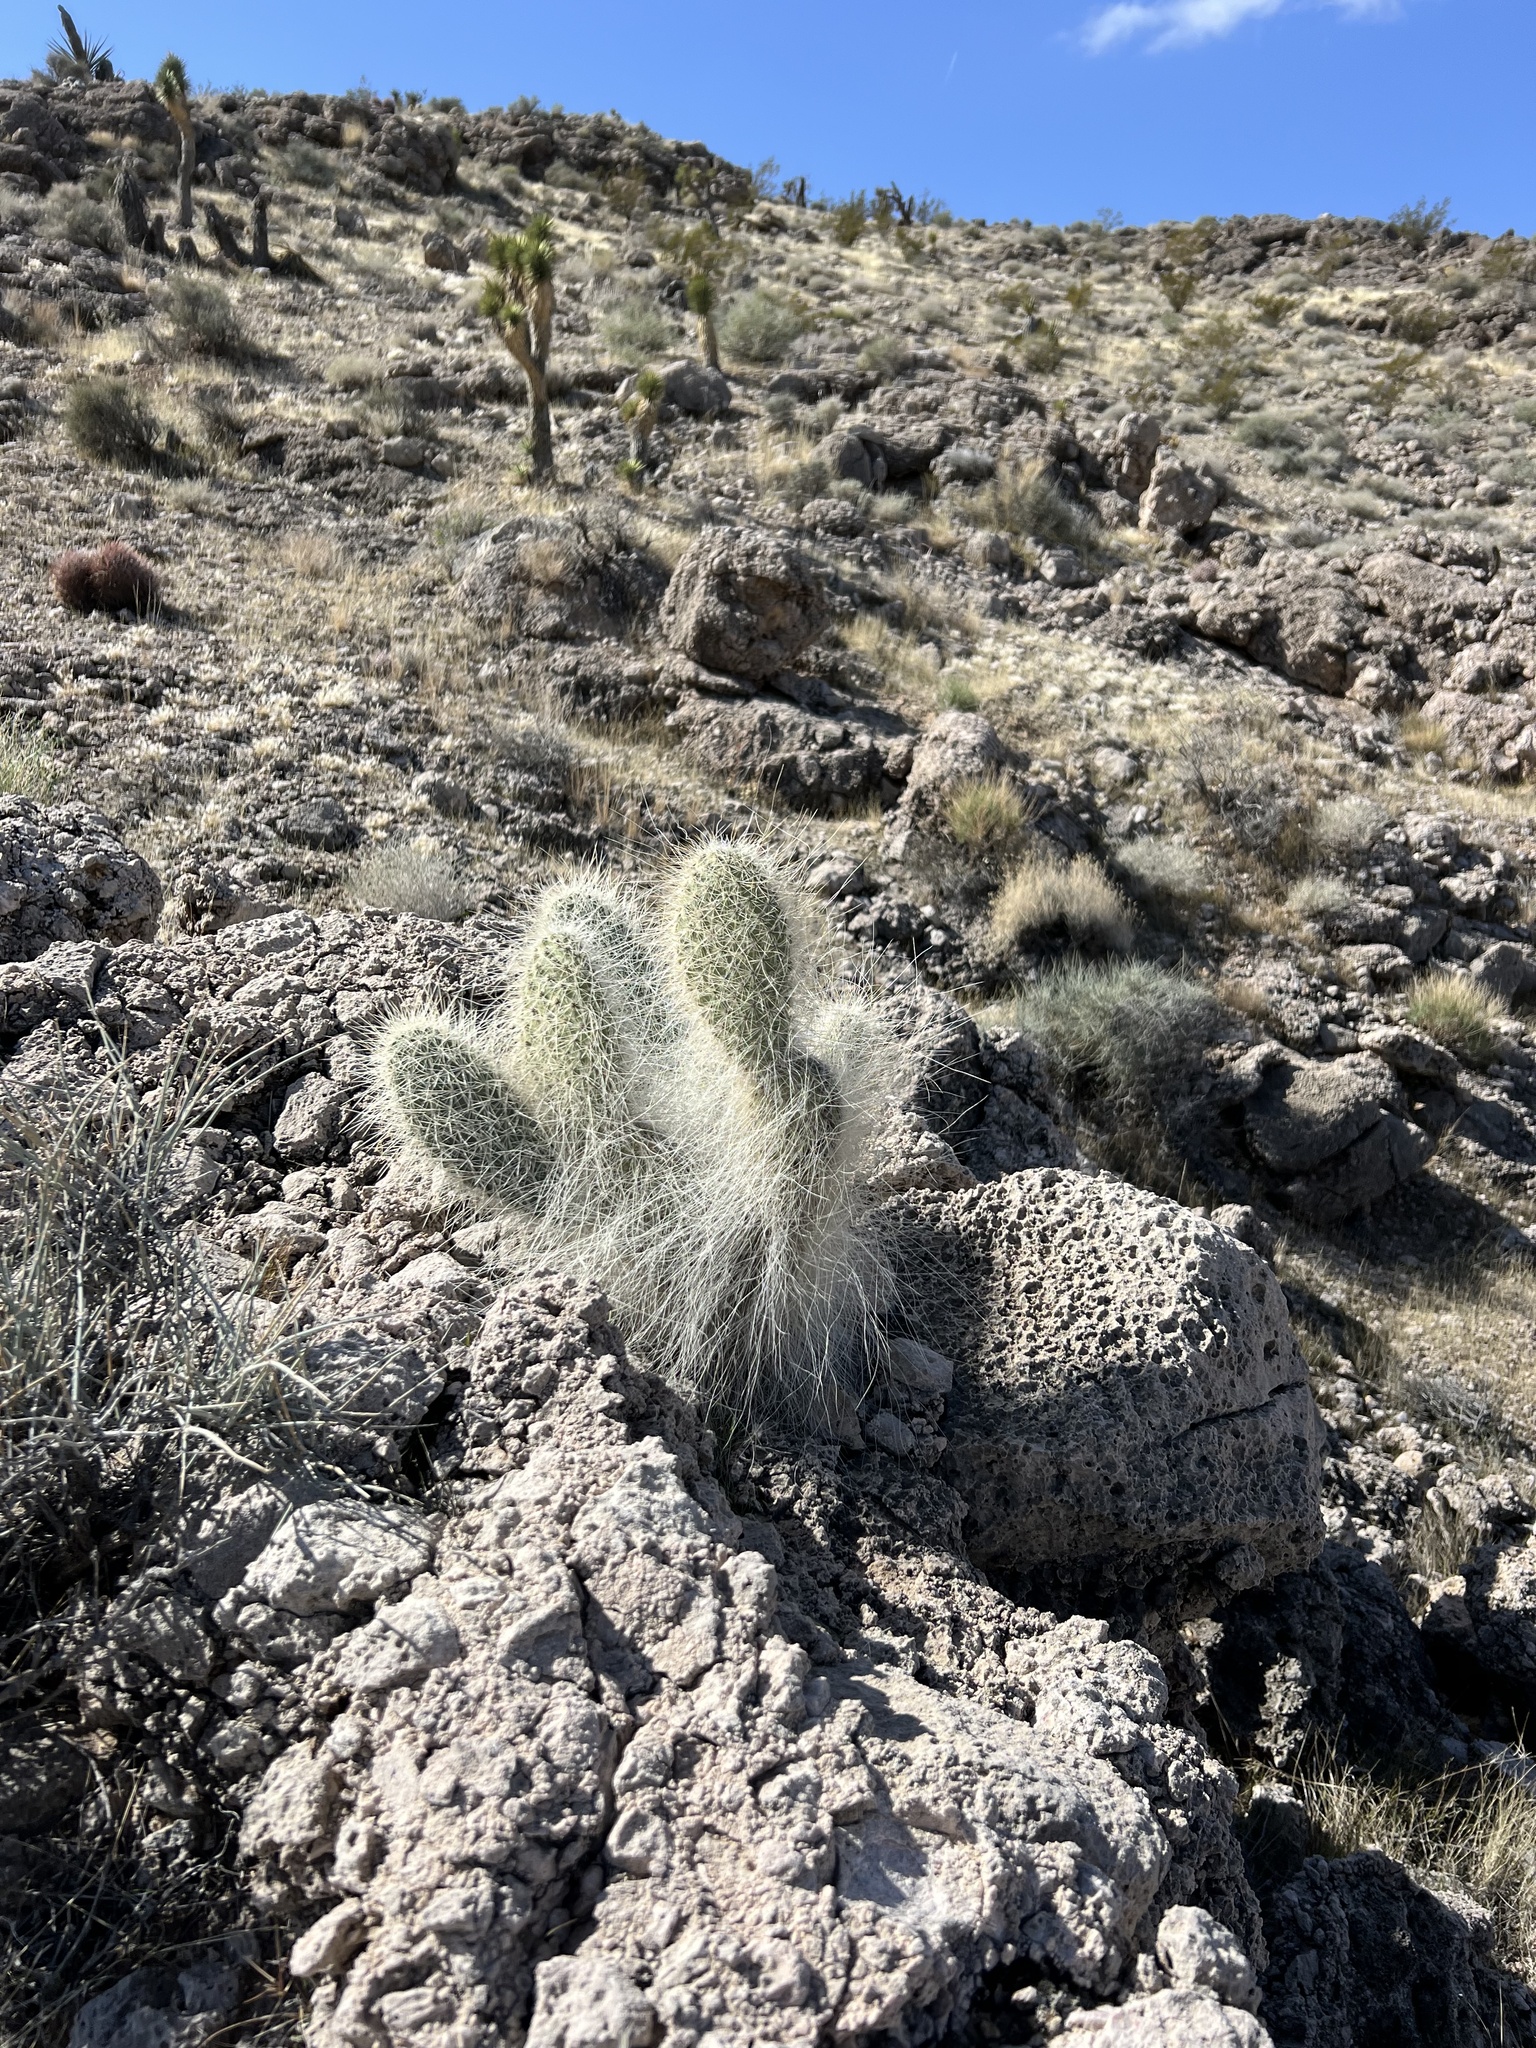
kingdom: Plantae
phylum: Tracheophyta
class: Magnoliopsida
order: Caryophyllales
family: Cactaceae
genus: Opuntia
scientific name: Opuntia polyacantha
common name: Plains prickly-pear
